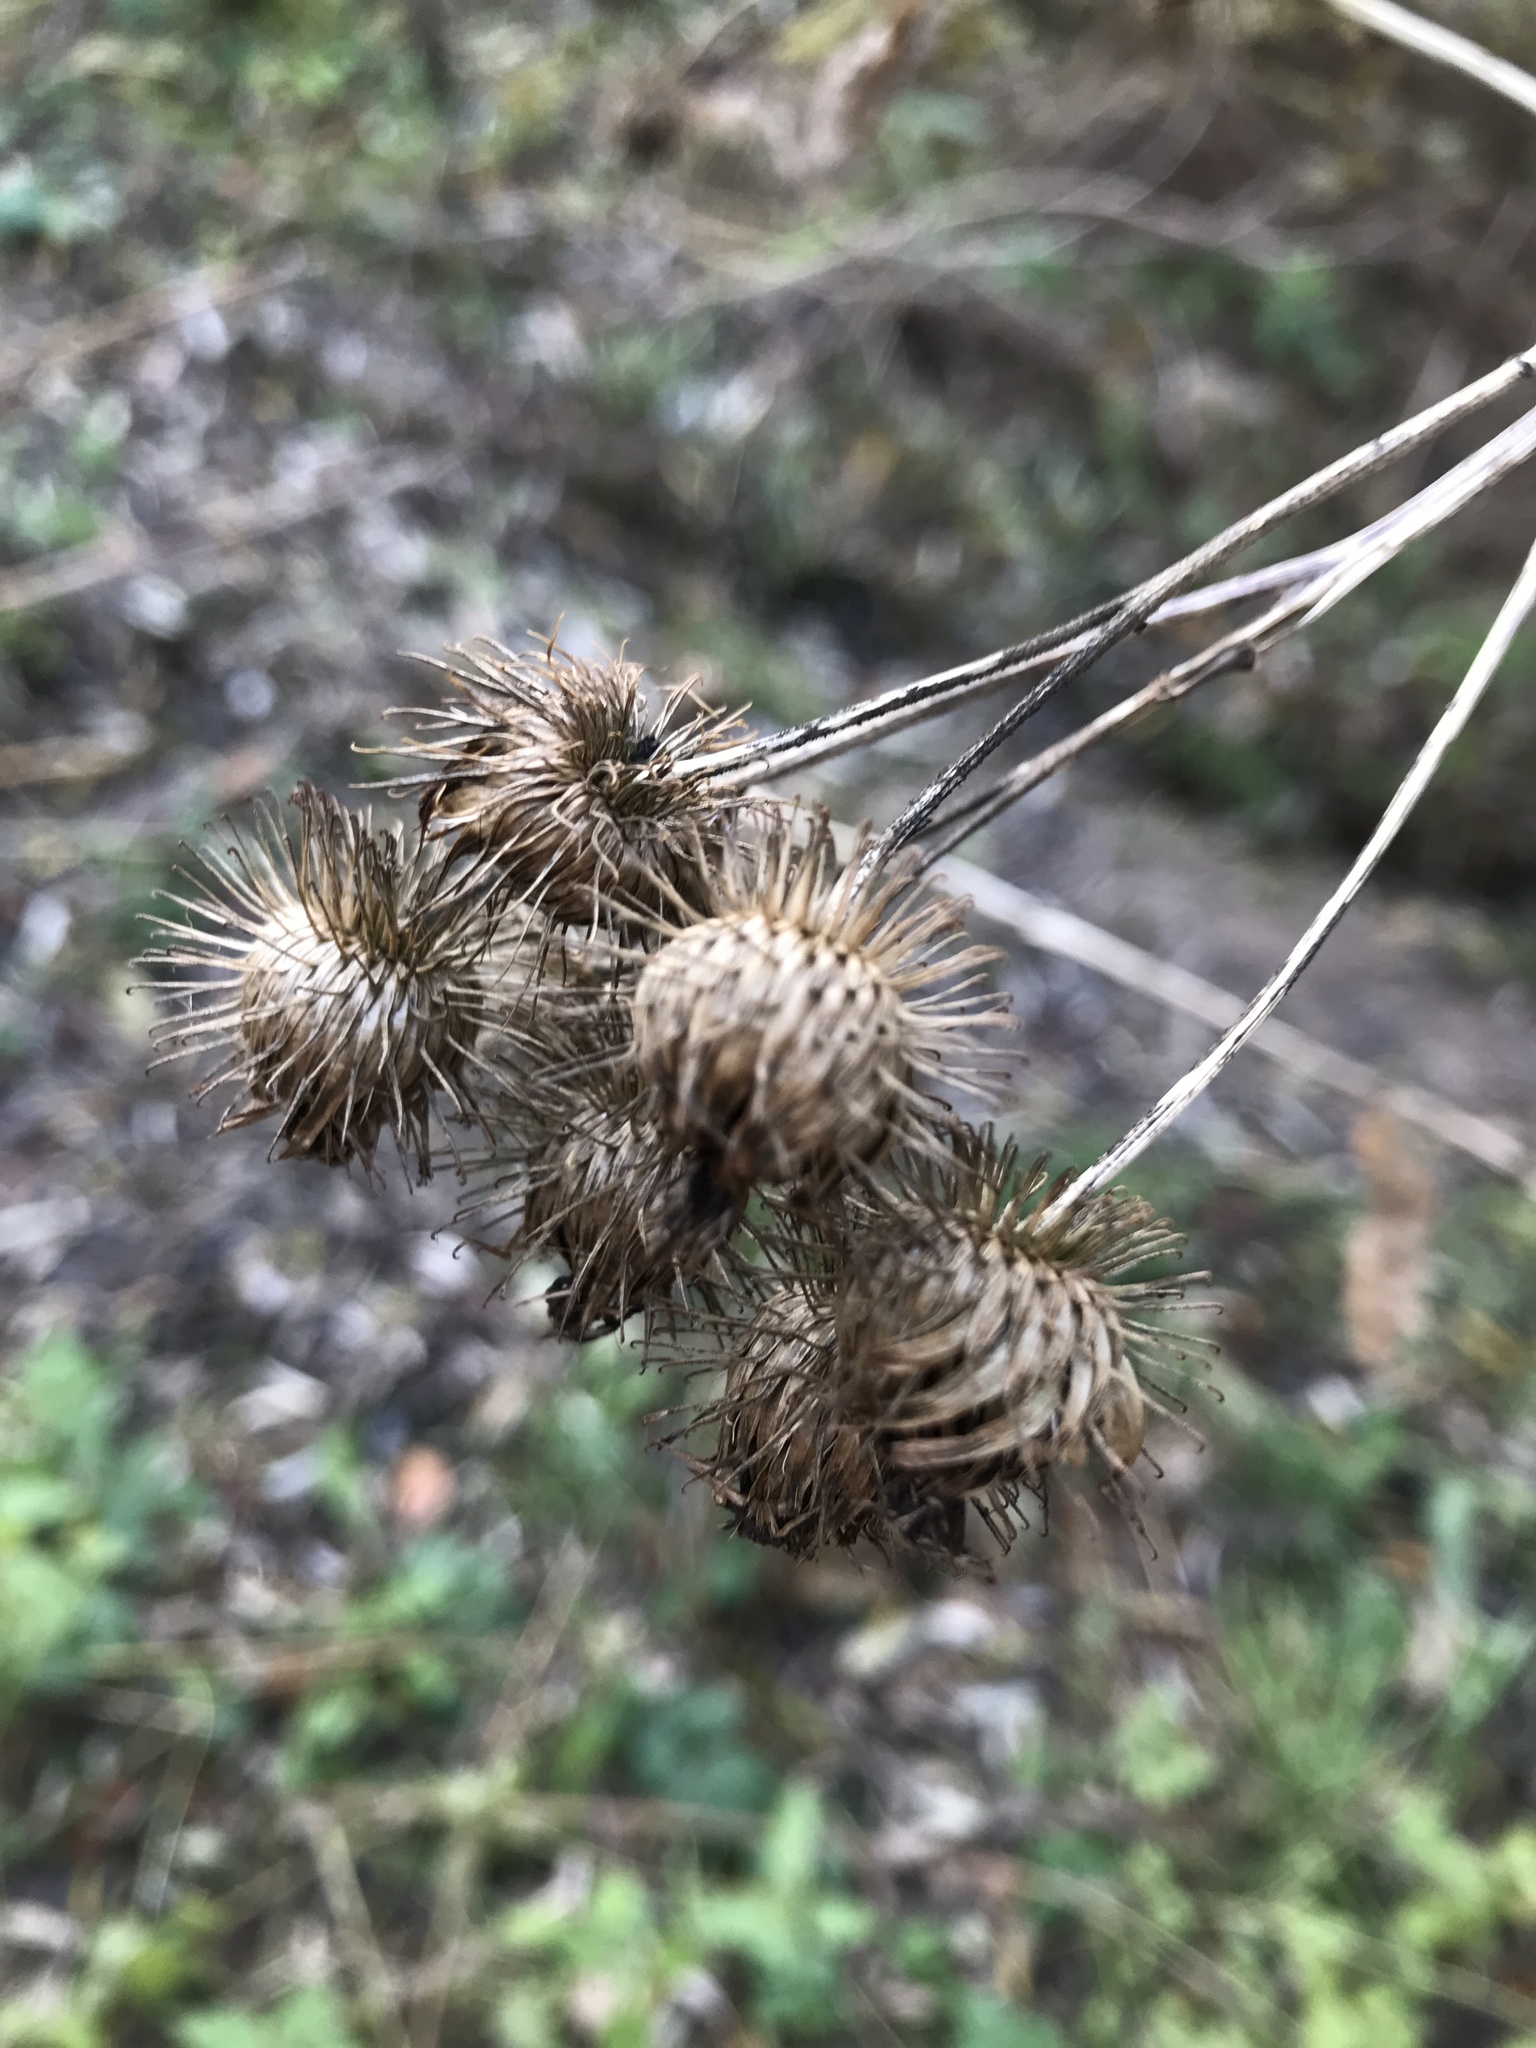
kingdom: Plantae
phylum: Tracheophyta
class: Magnoliopsida
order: Asterales
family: Asteraceae
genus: Arctium
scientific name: Arctium tomentosum
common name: Woolly burdock
